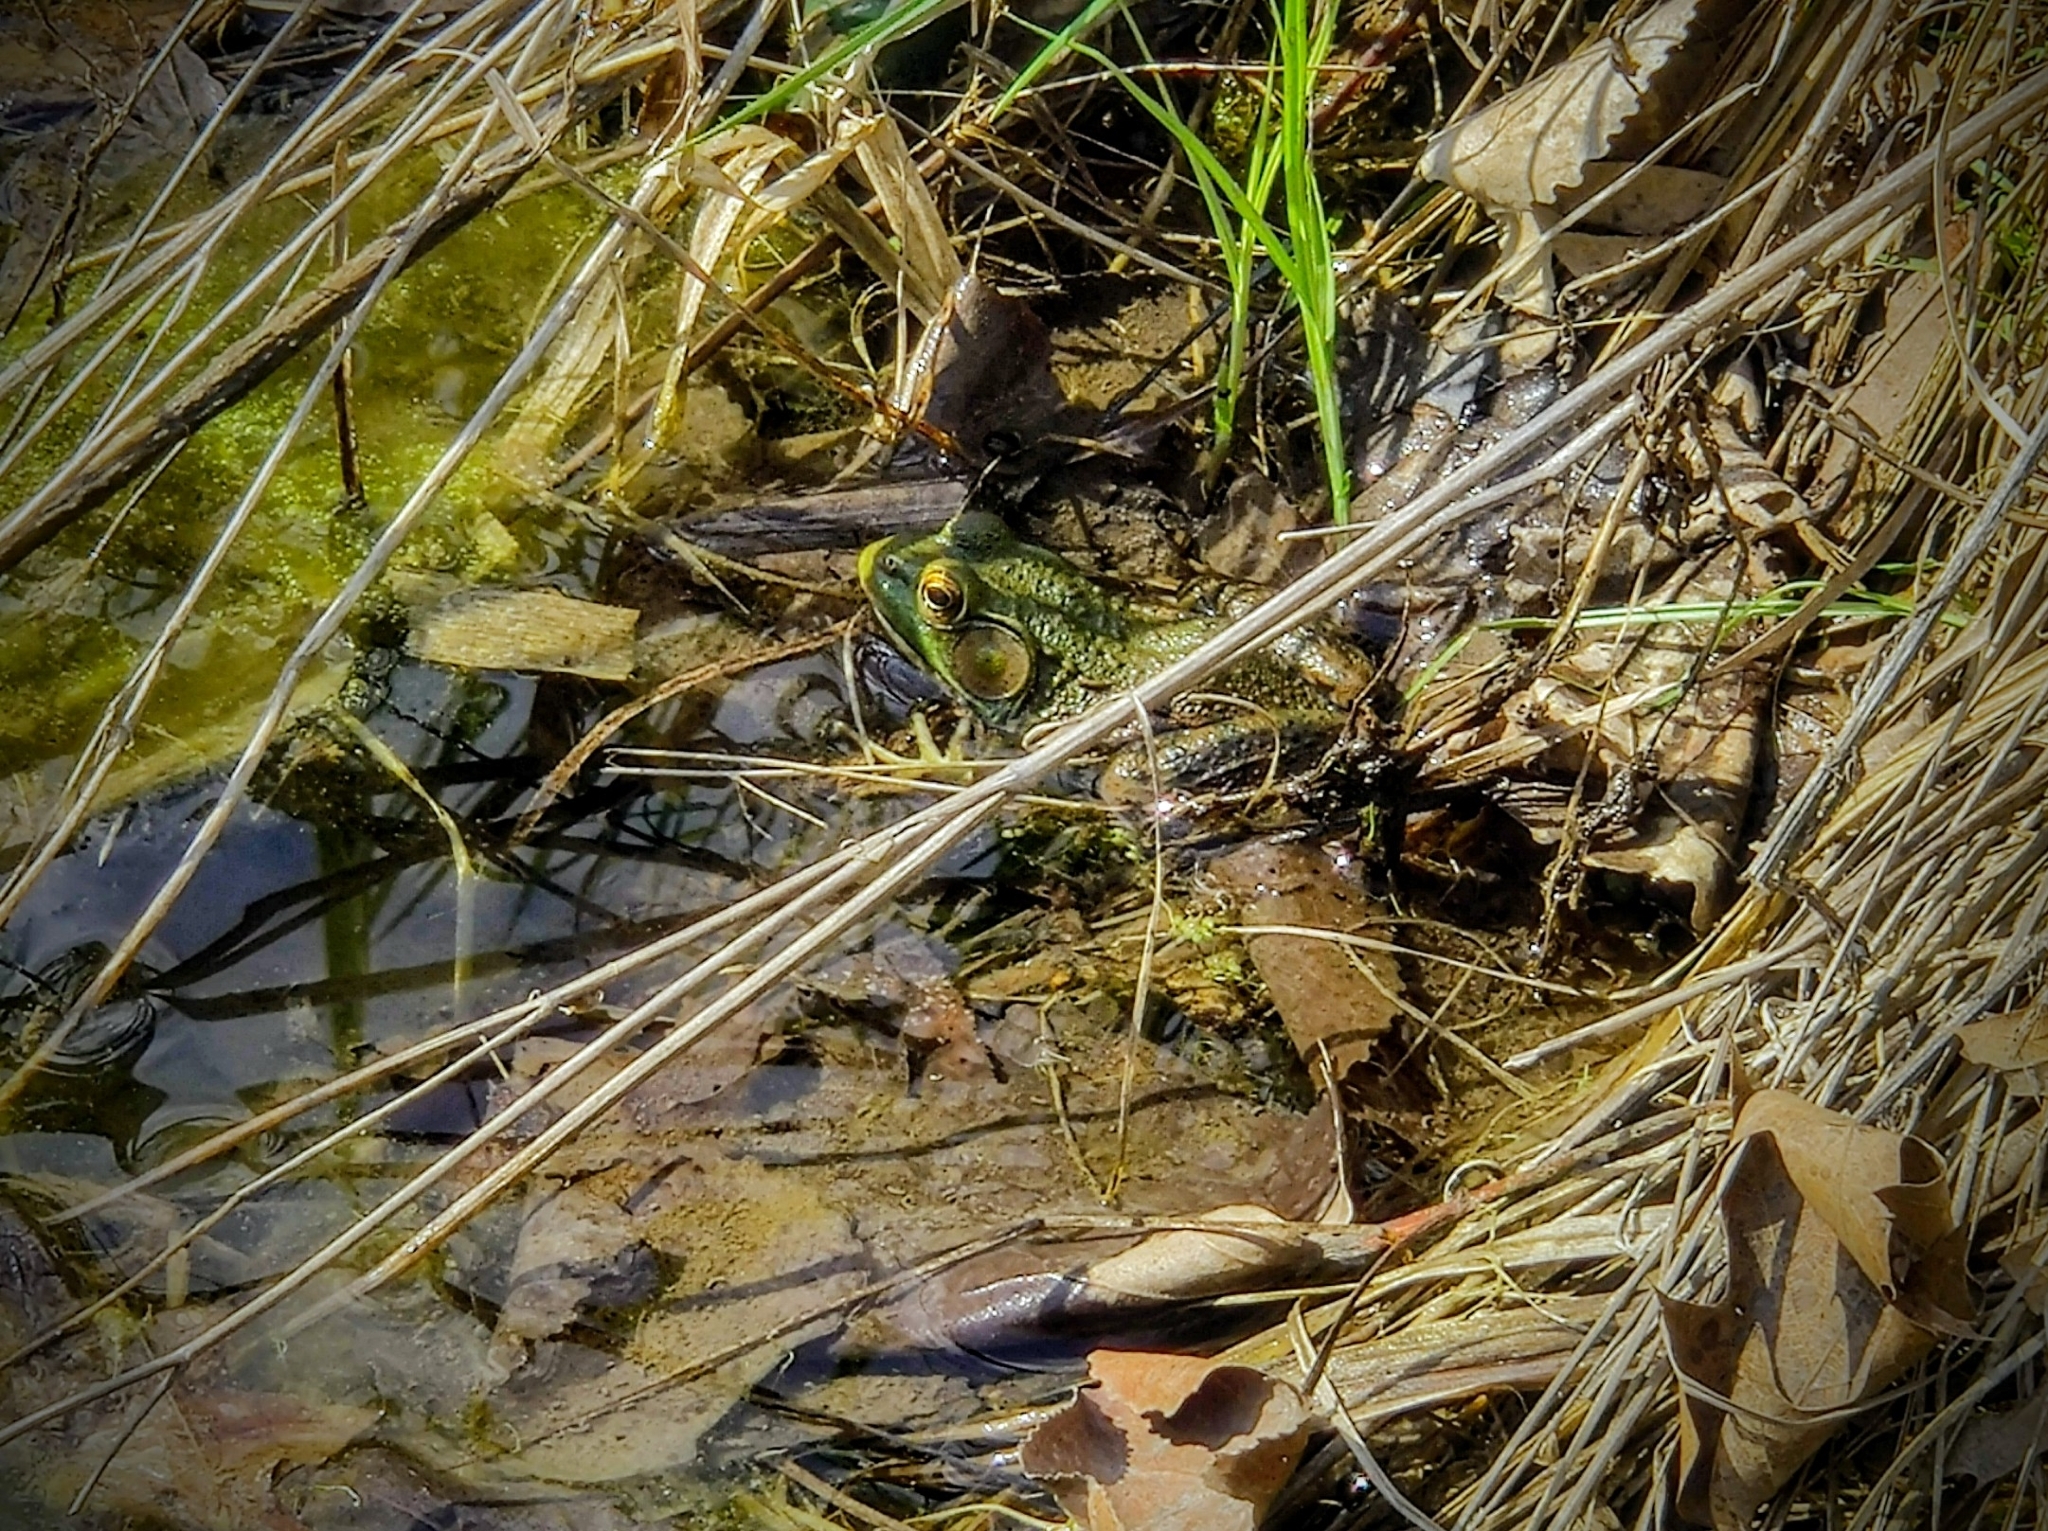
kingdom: Animalia
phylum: Chordata
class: Amphibia
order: Anura
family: Ranidae
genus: Lithobates
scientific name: Lithobates clamitans
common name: Green frog
